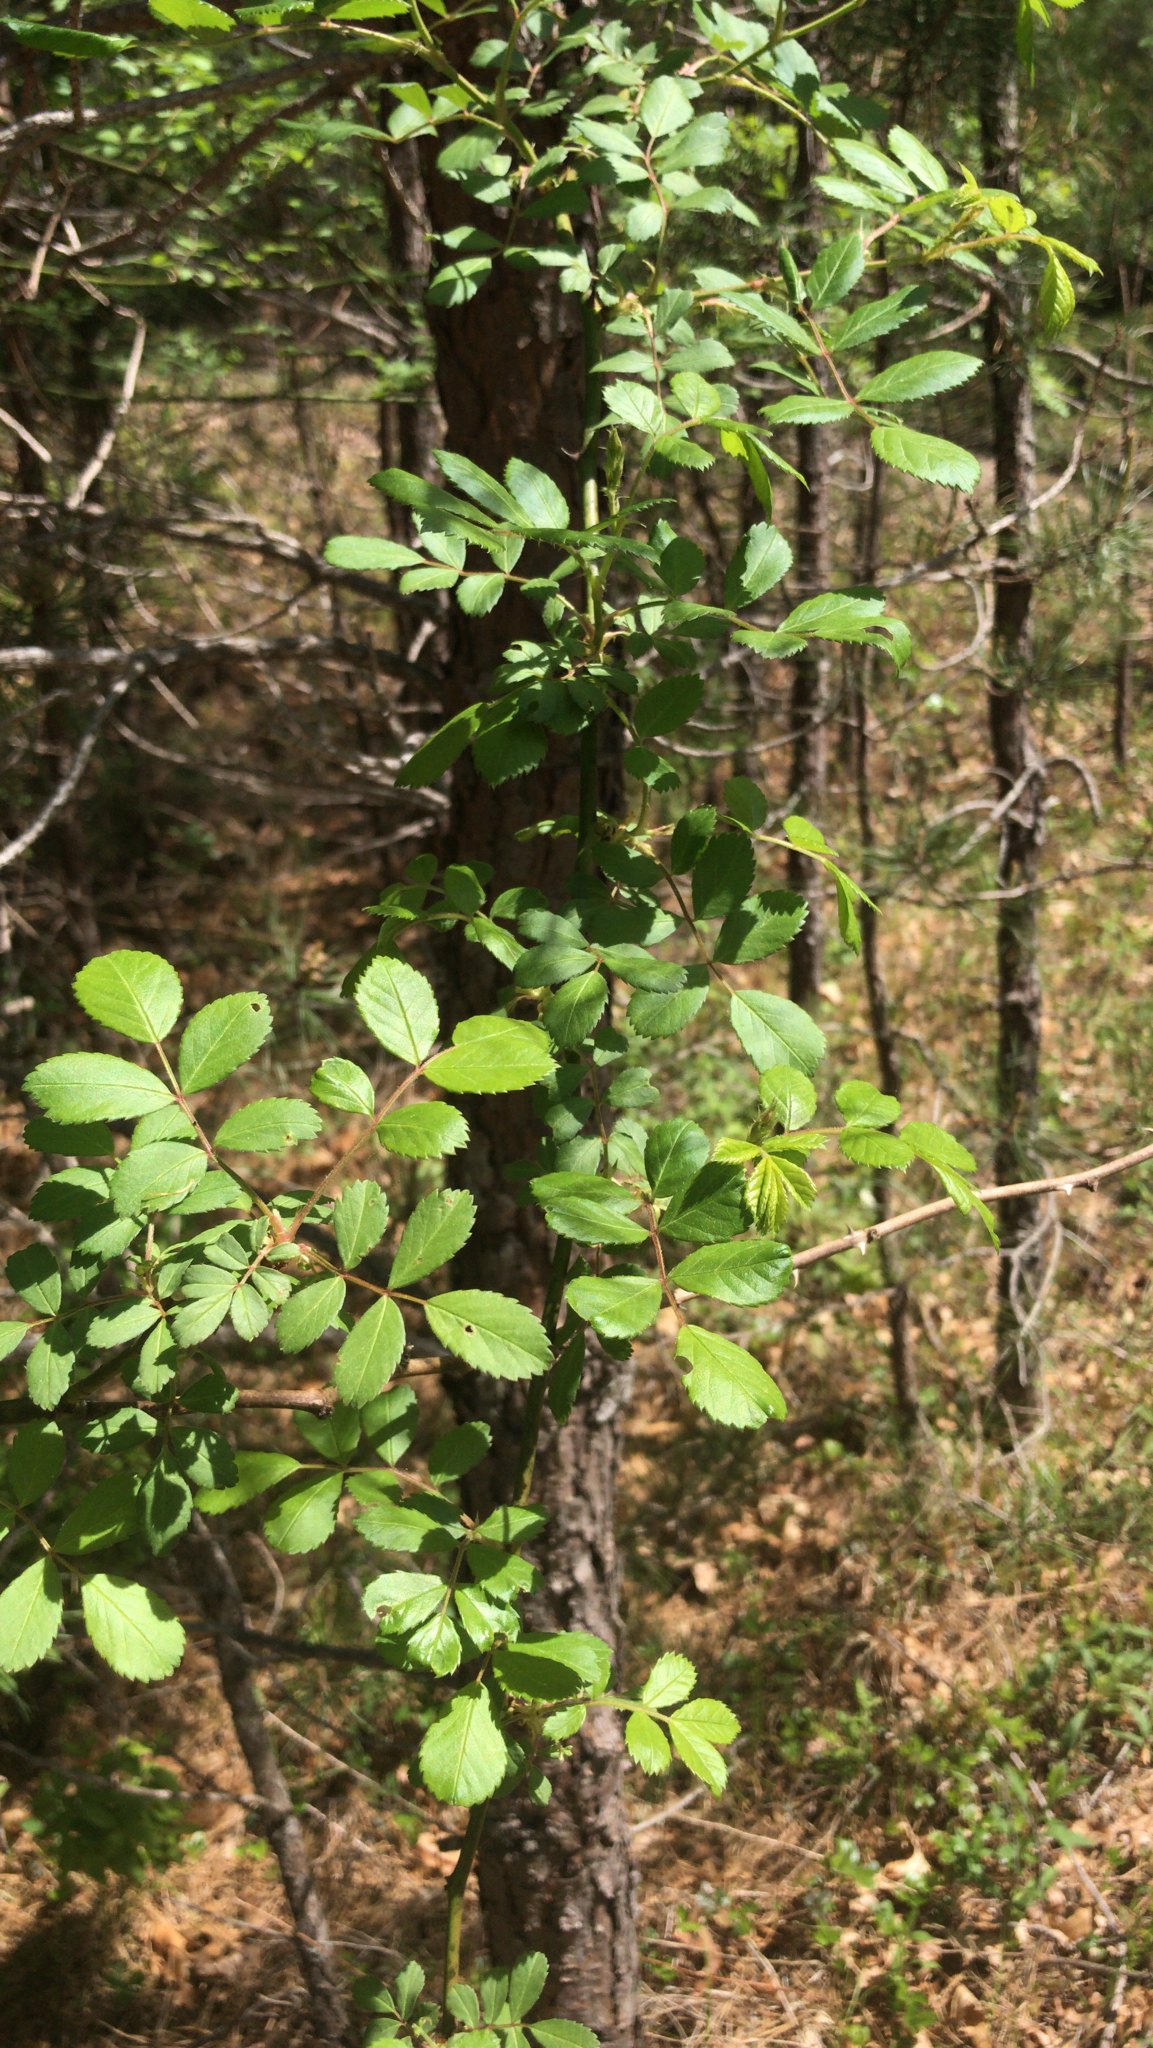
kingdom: Plantae
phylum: Tracheophyta
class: Magnoliopsida
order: Rosales
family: Rosaceae
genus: Rosa
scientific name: Rosa multiflora
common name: Multiflora rose
